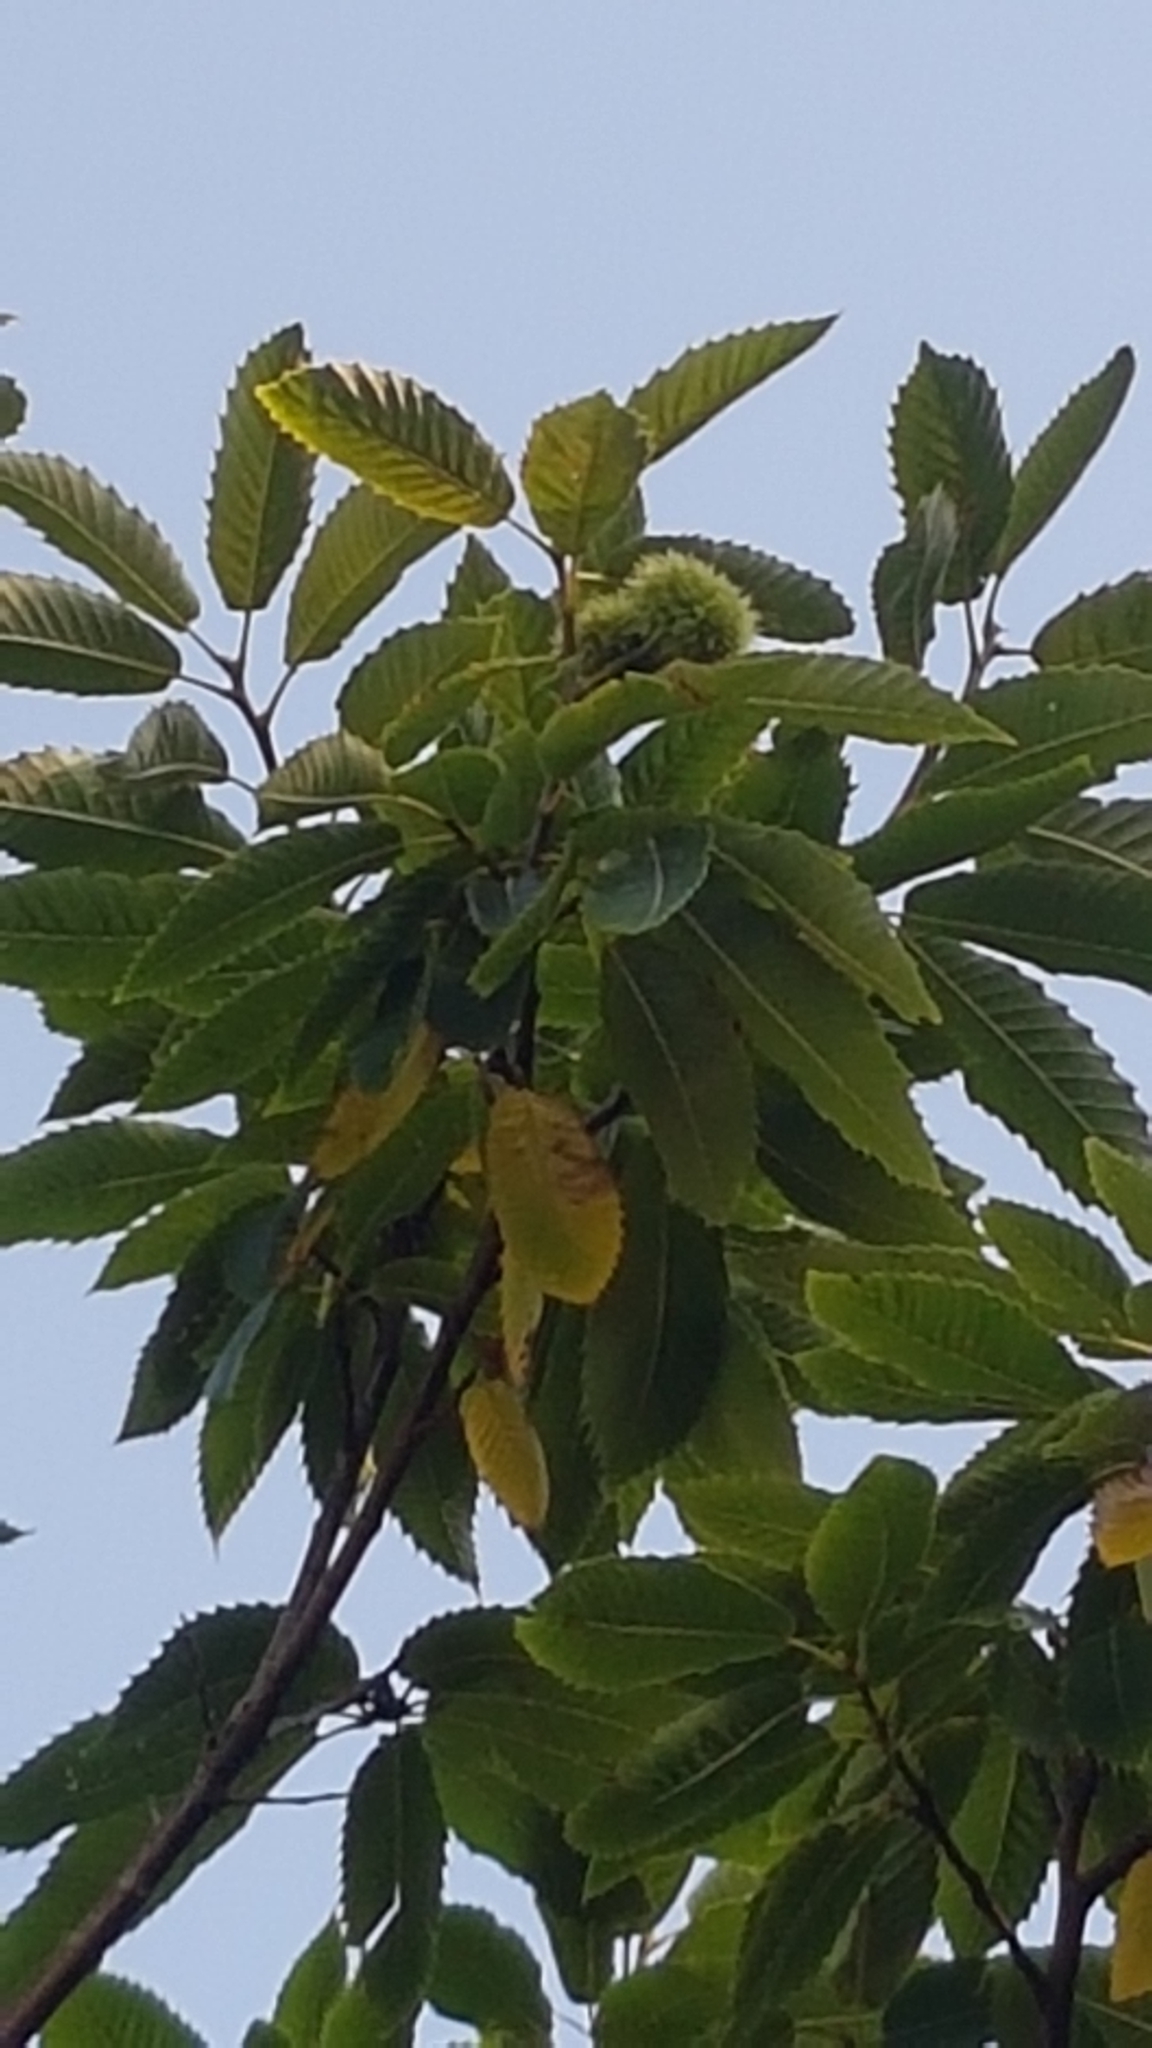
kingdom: Plantae
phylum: Tracheophyta
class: Magnoliopsida
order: Fagales
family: Fagaceae
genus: Castanea
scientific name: Castanea sativa
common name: Sweet chestnut
